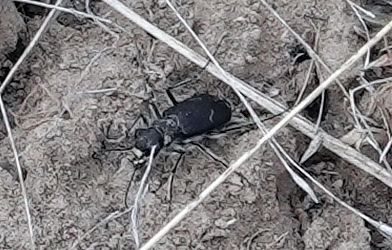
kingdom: Animalia
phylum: Arthropoda
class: Insecta
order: Coleoptera
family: Carabidae
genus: Cicindela
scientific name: Cicindela purpurea
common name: Cow path tiger beetle
